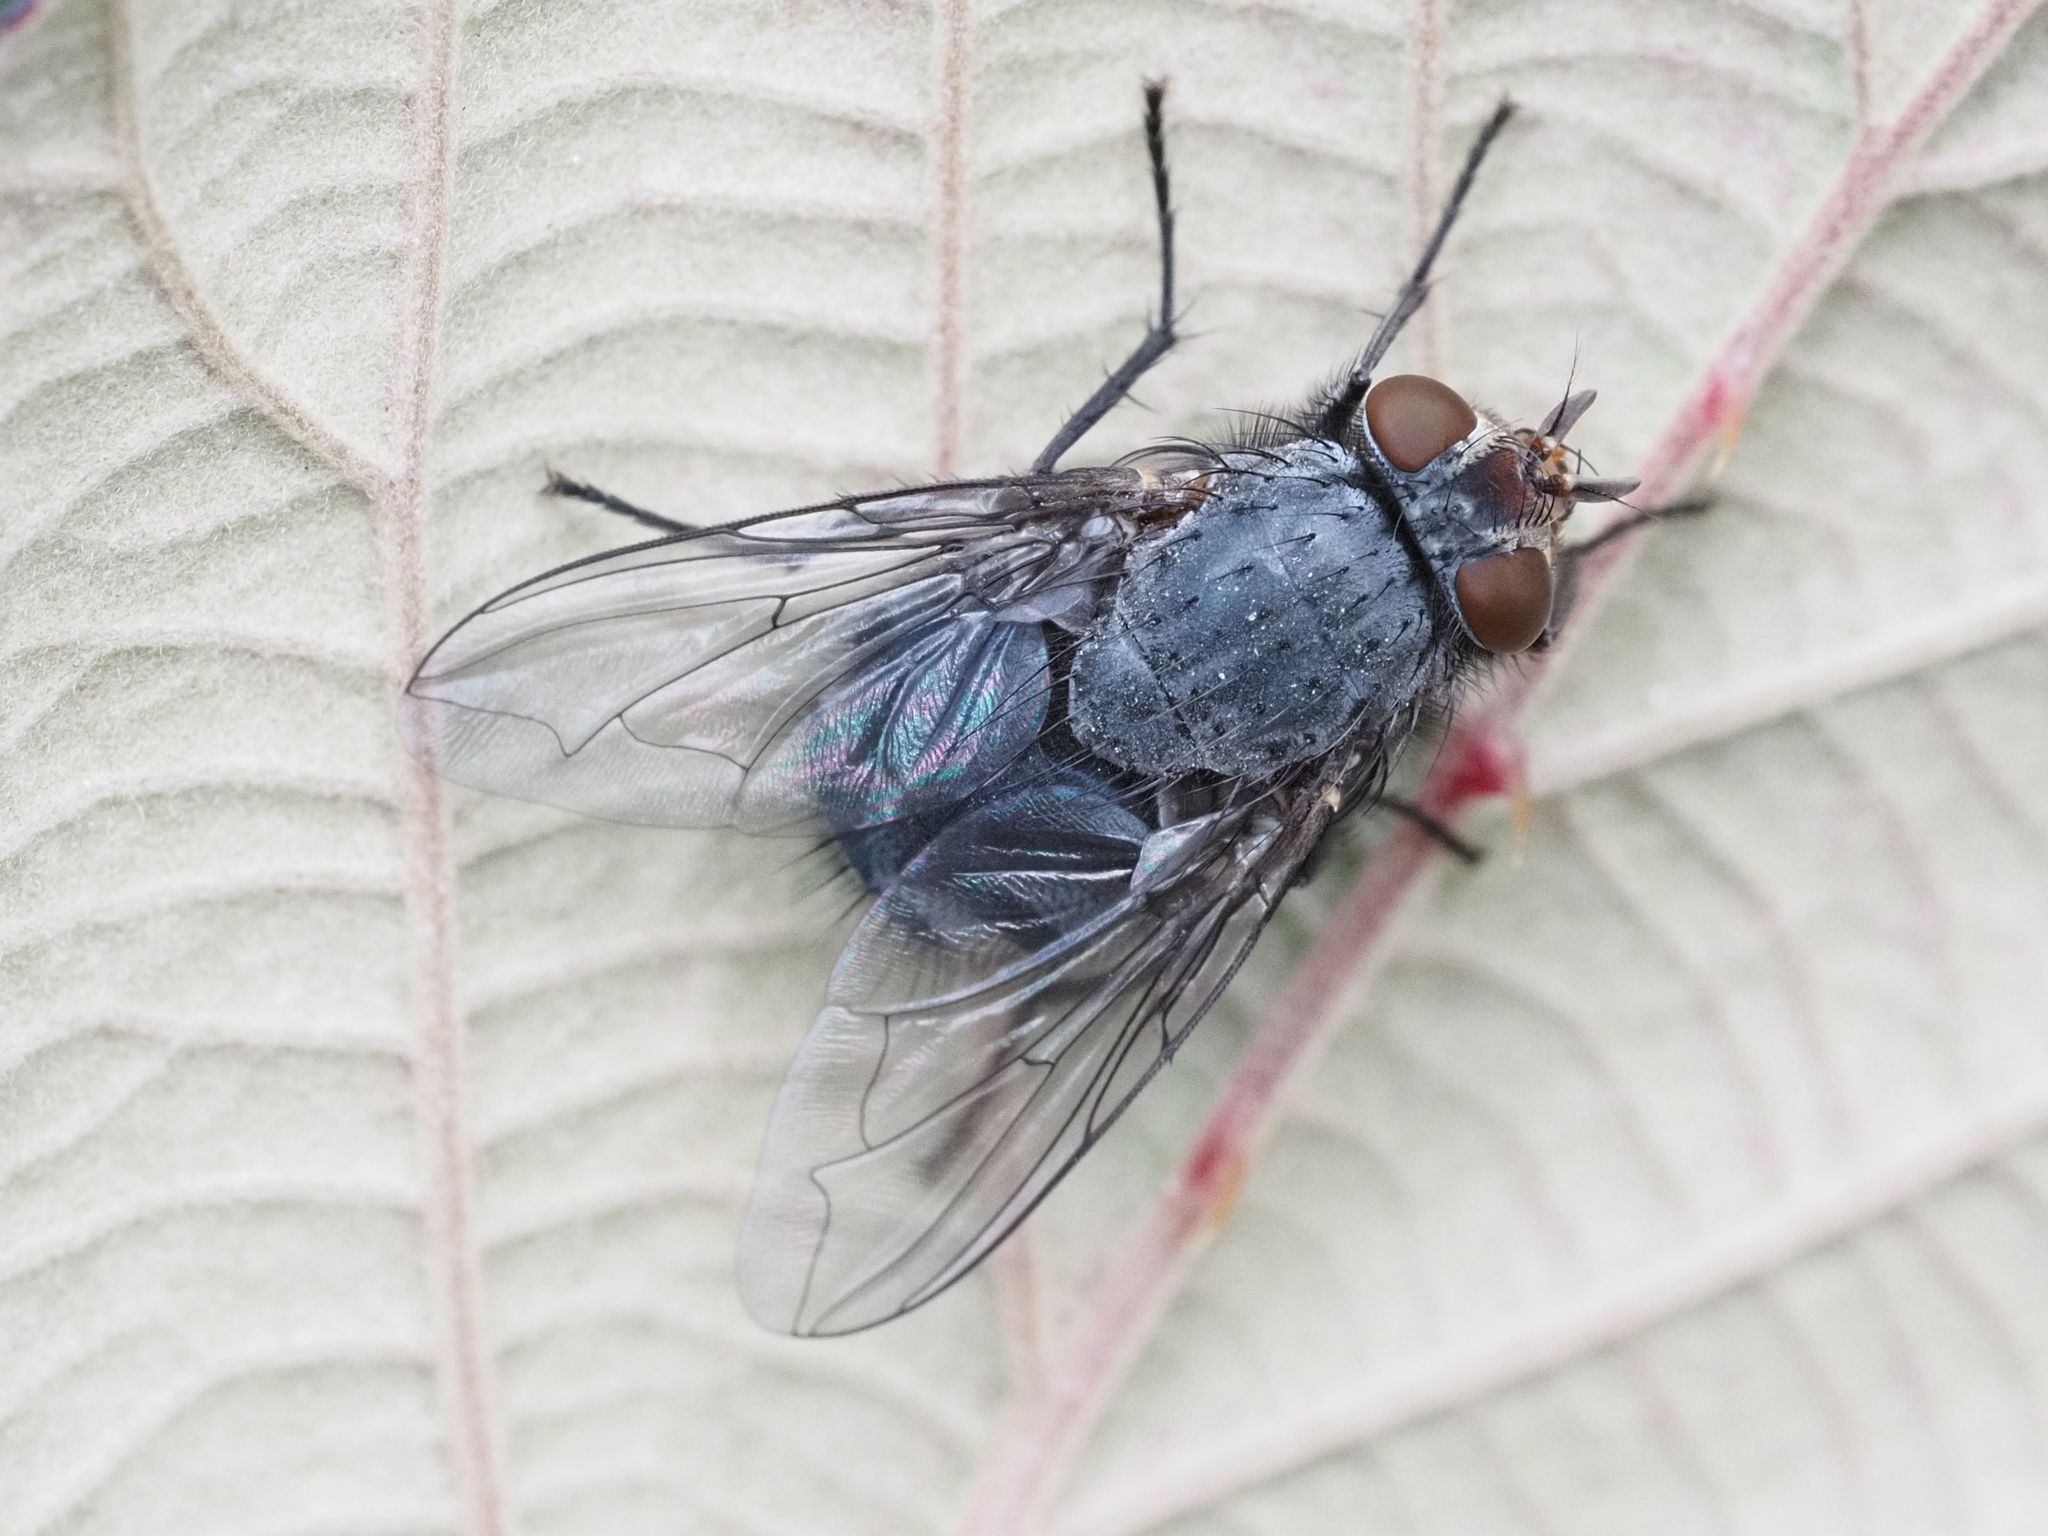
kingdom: Animalia
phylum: Arthropoda
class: Insecta
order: Diptera
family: Calliphoridae
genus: Calliphora
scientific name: Calliphora vicina
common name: Common blow flie
